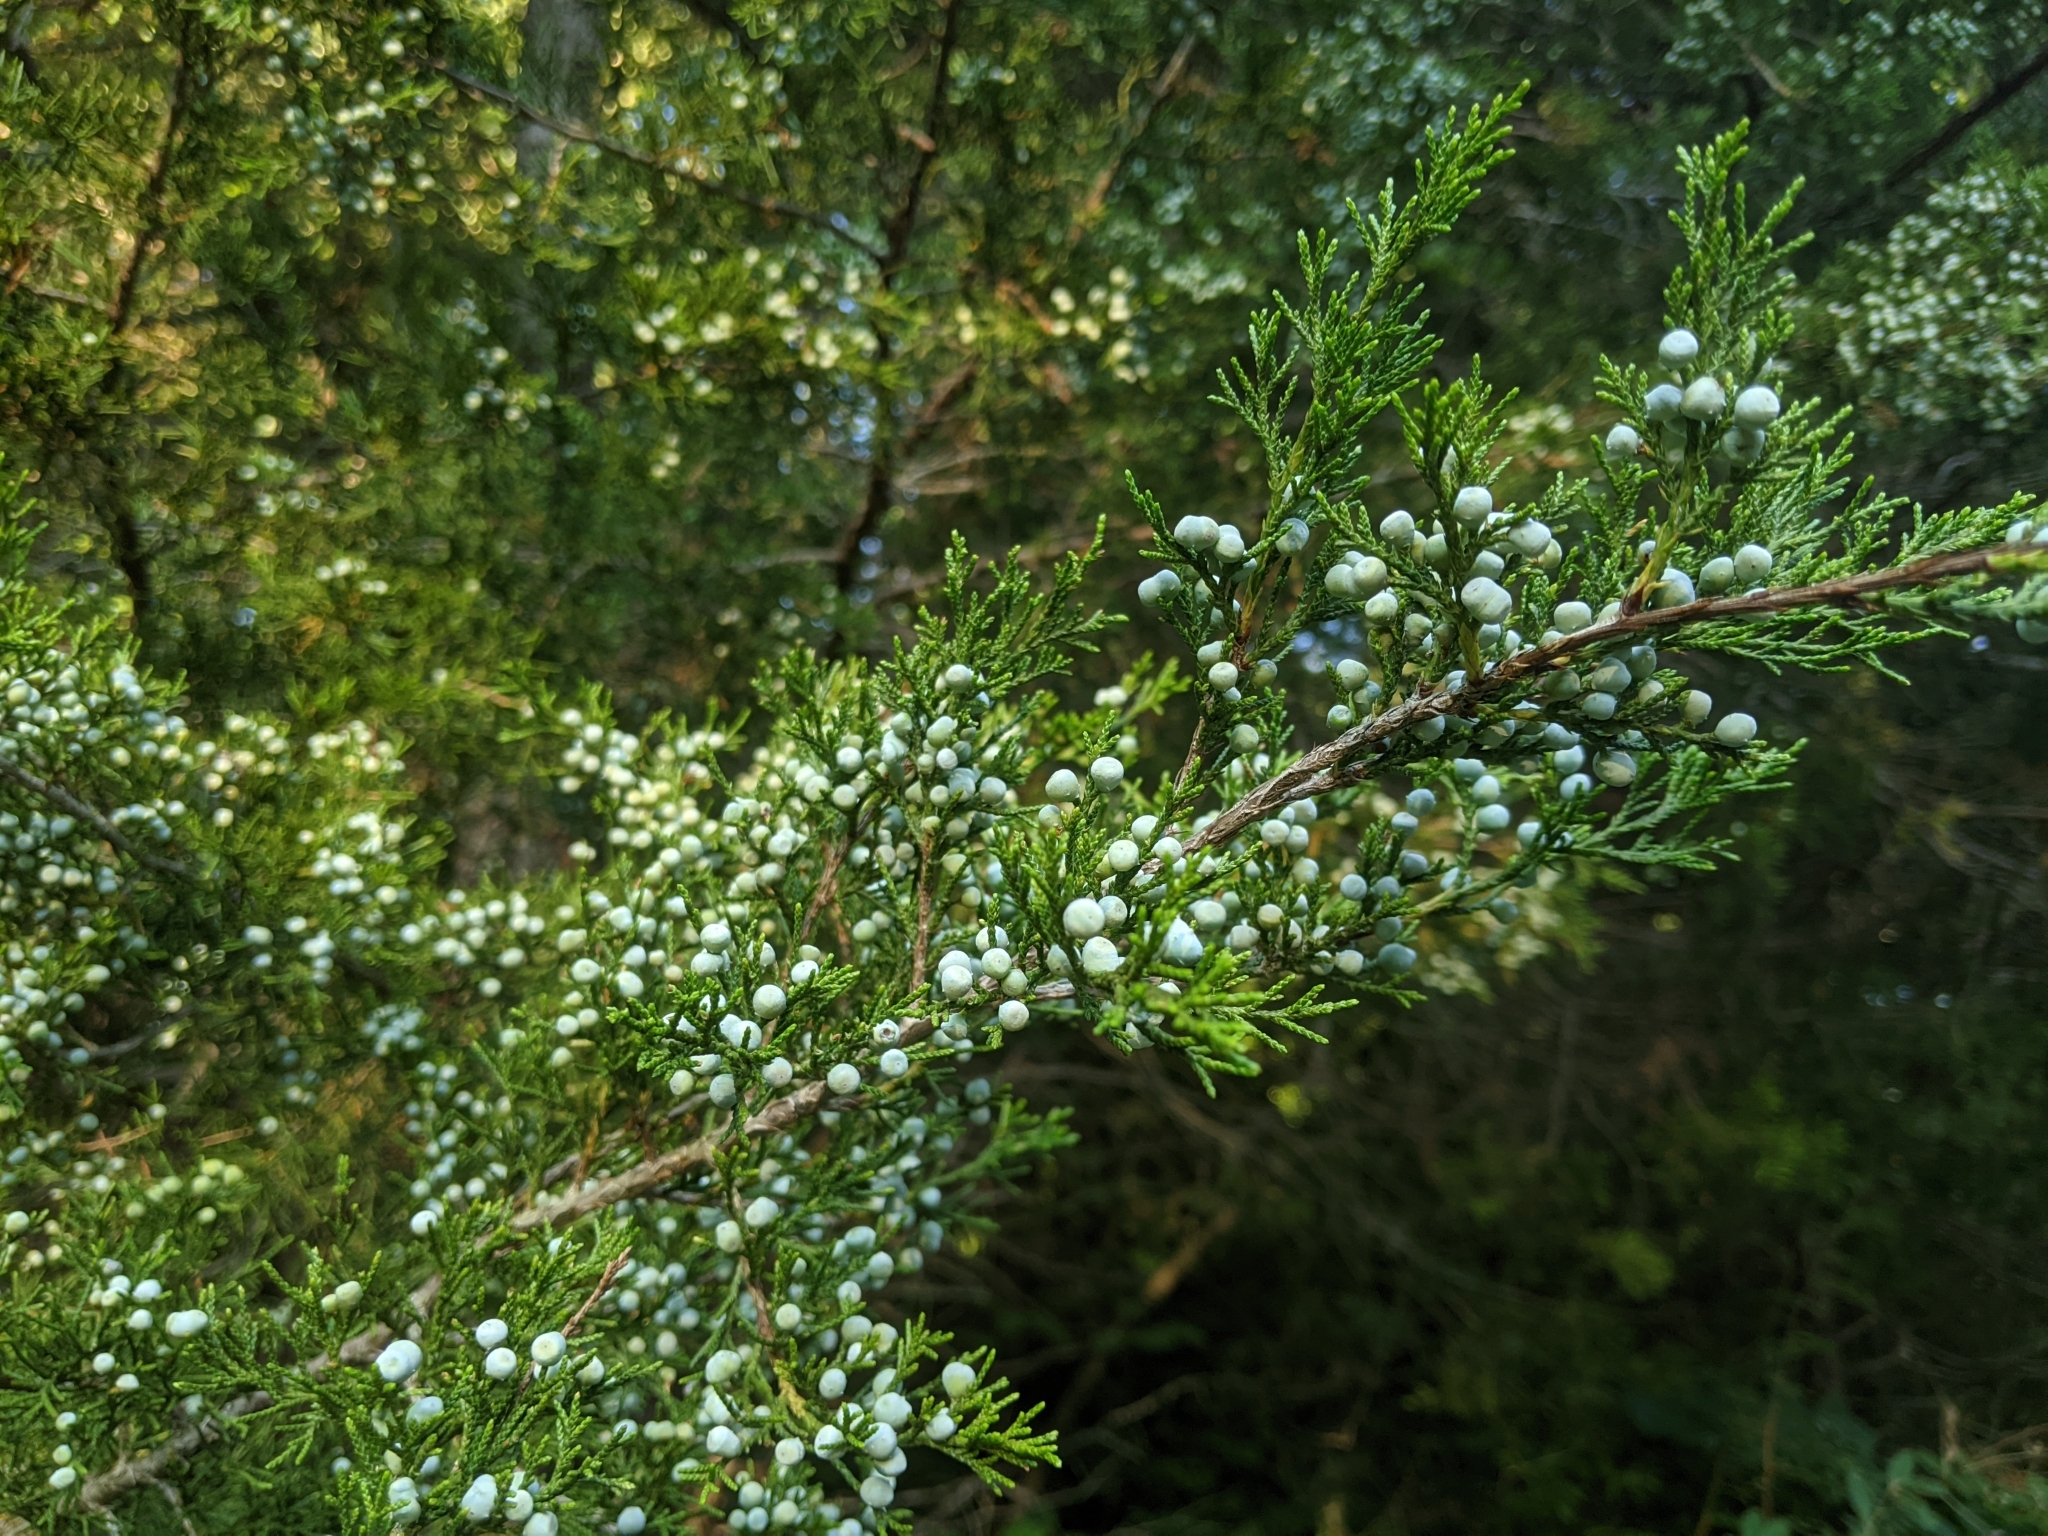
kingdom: Plantae
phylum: Tracheophyta
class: Pinopsida
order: Pinales
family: Cupressaceae
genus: Juniperus
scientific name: Juniperus virginiana
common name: Red juniper
